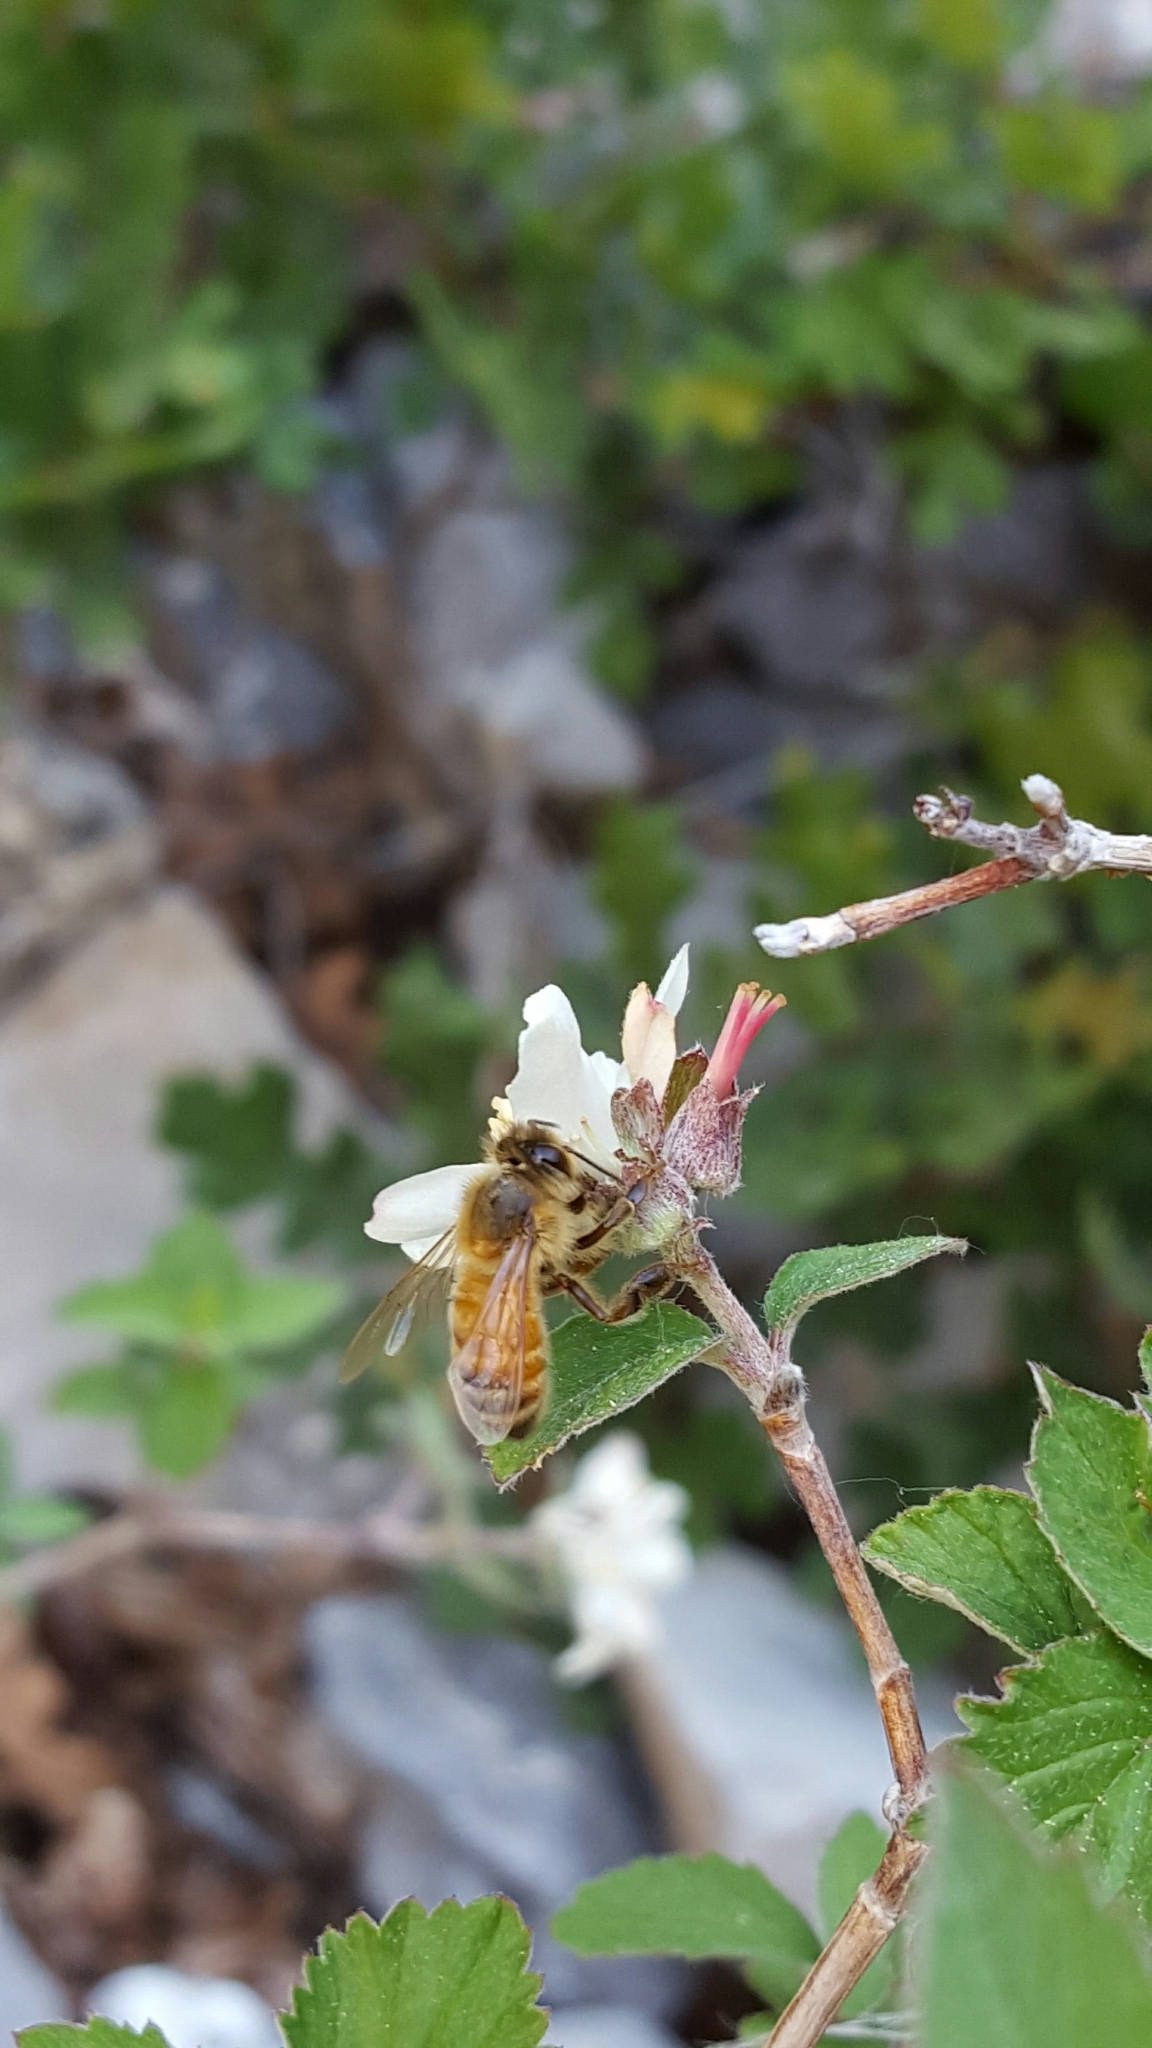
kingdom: Animalia
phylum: Arthropoda
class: Insecta
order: Hymenoptera
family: Apidae
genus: Apis
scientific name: Apis mellifera
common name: Honey bee
